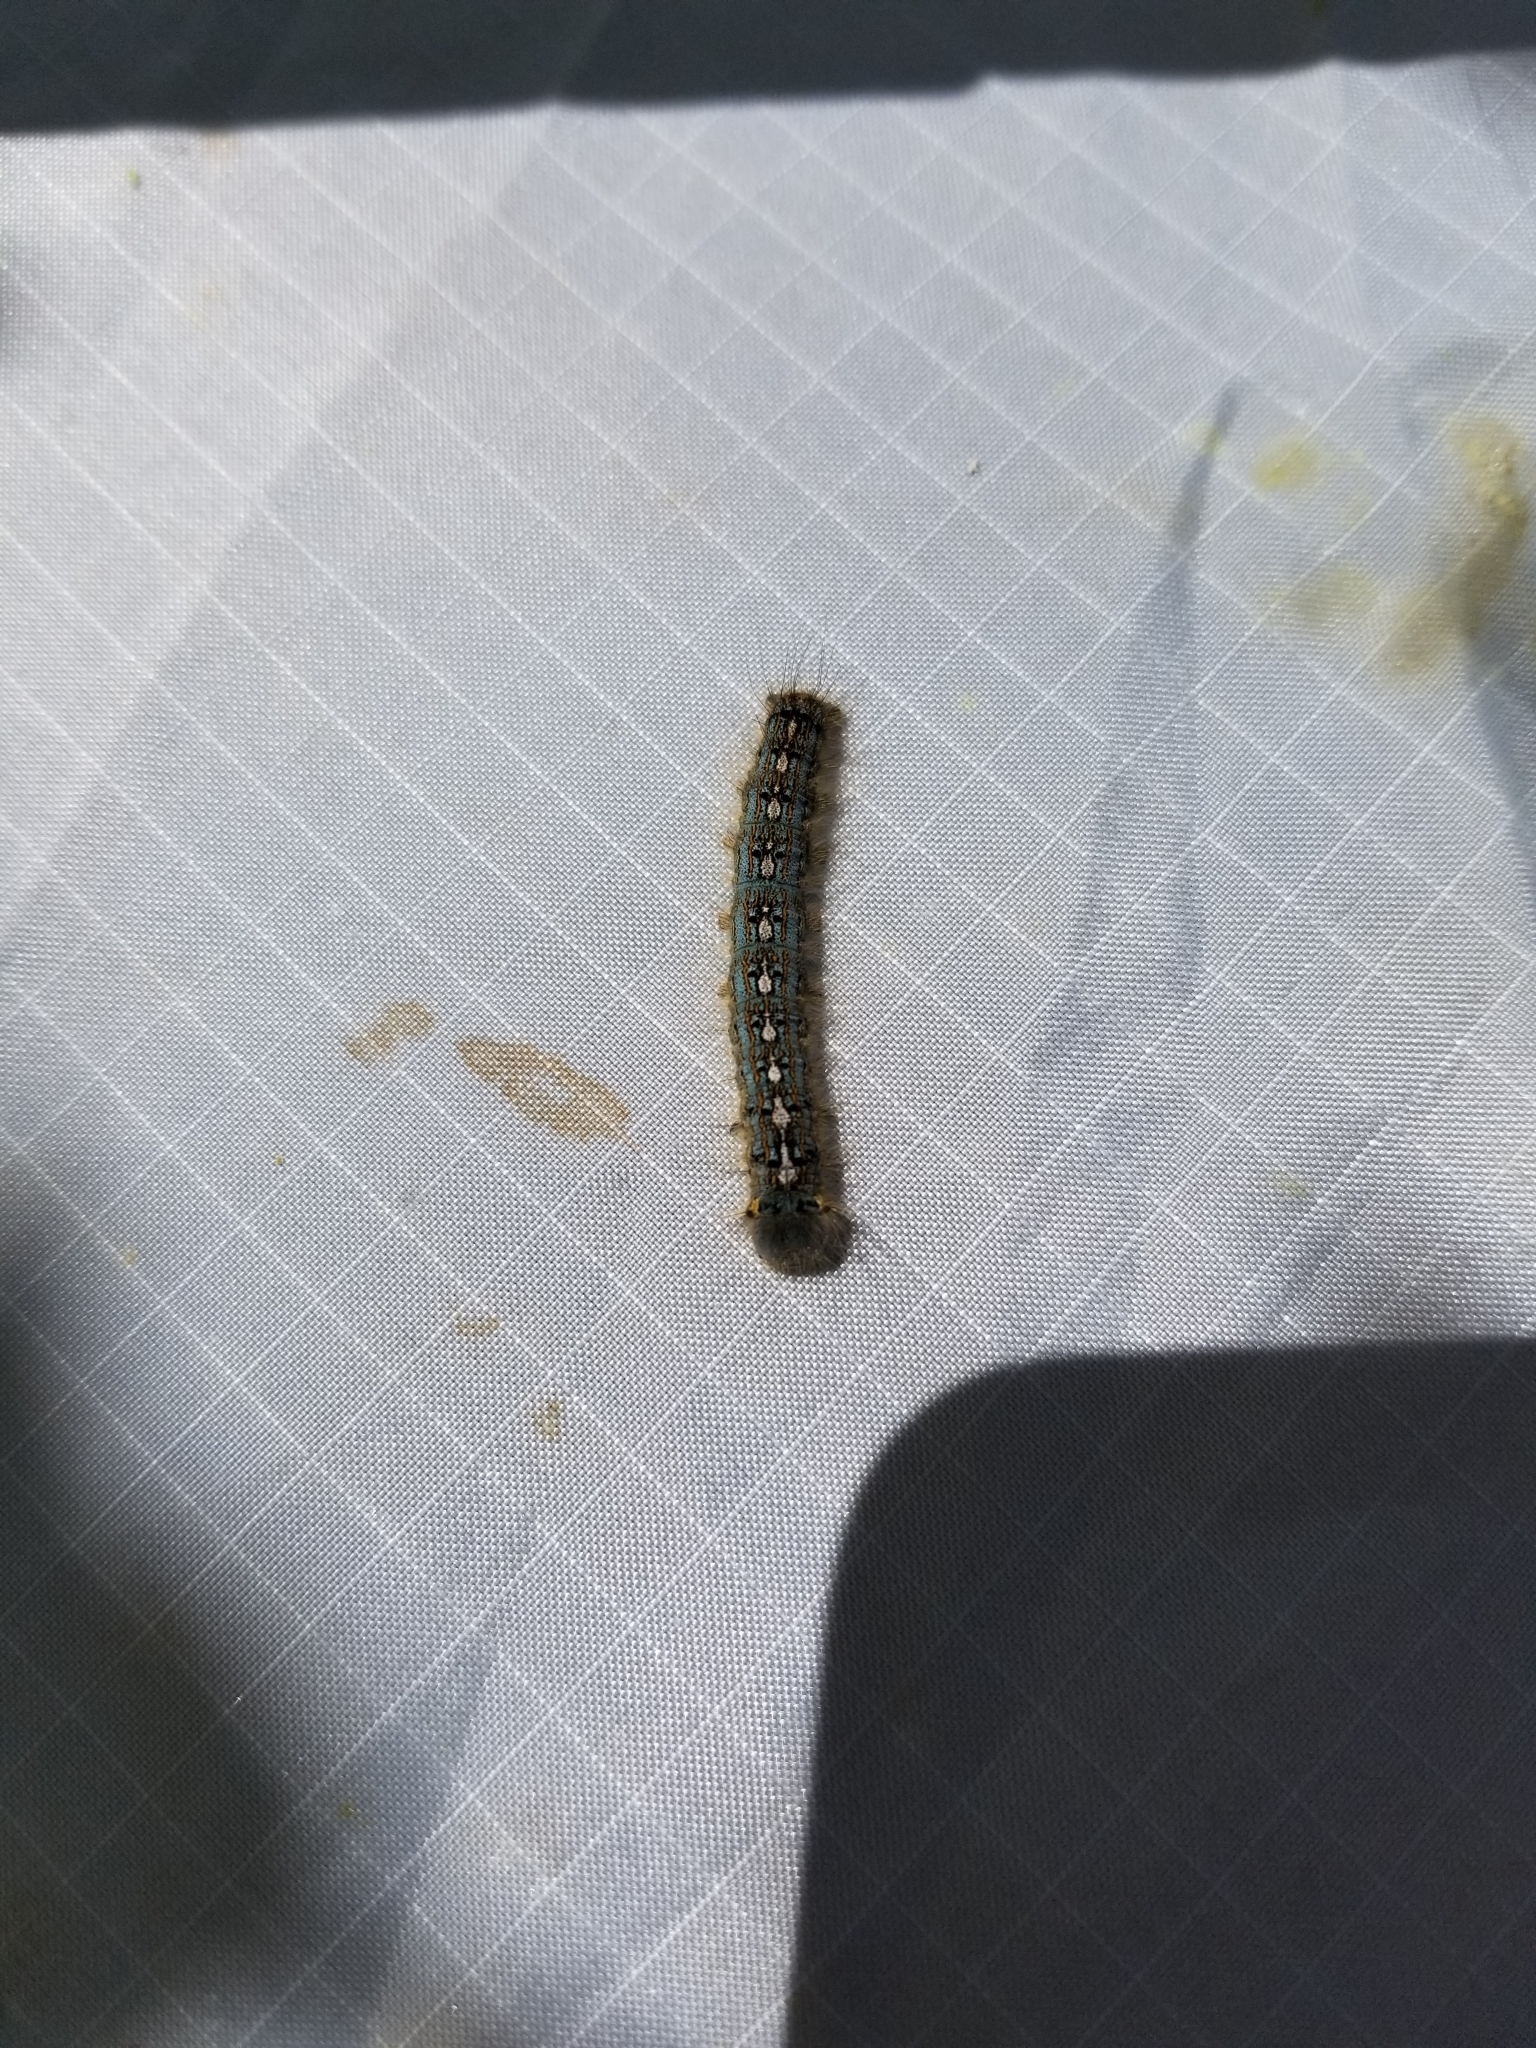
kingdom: Animalia
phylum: Arthropoda
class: Insecta
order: Lepidoptera
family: Lasiocampidae
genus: Malacosoma
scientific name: Malacosoma disstria
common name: Forest tent caterpillar
